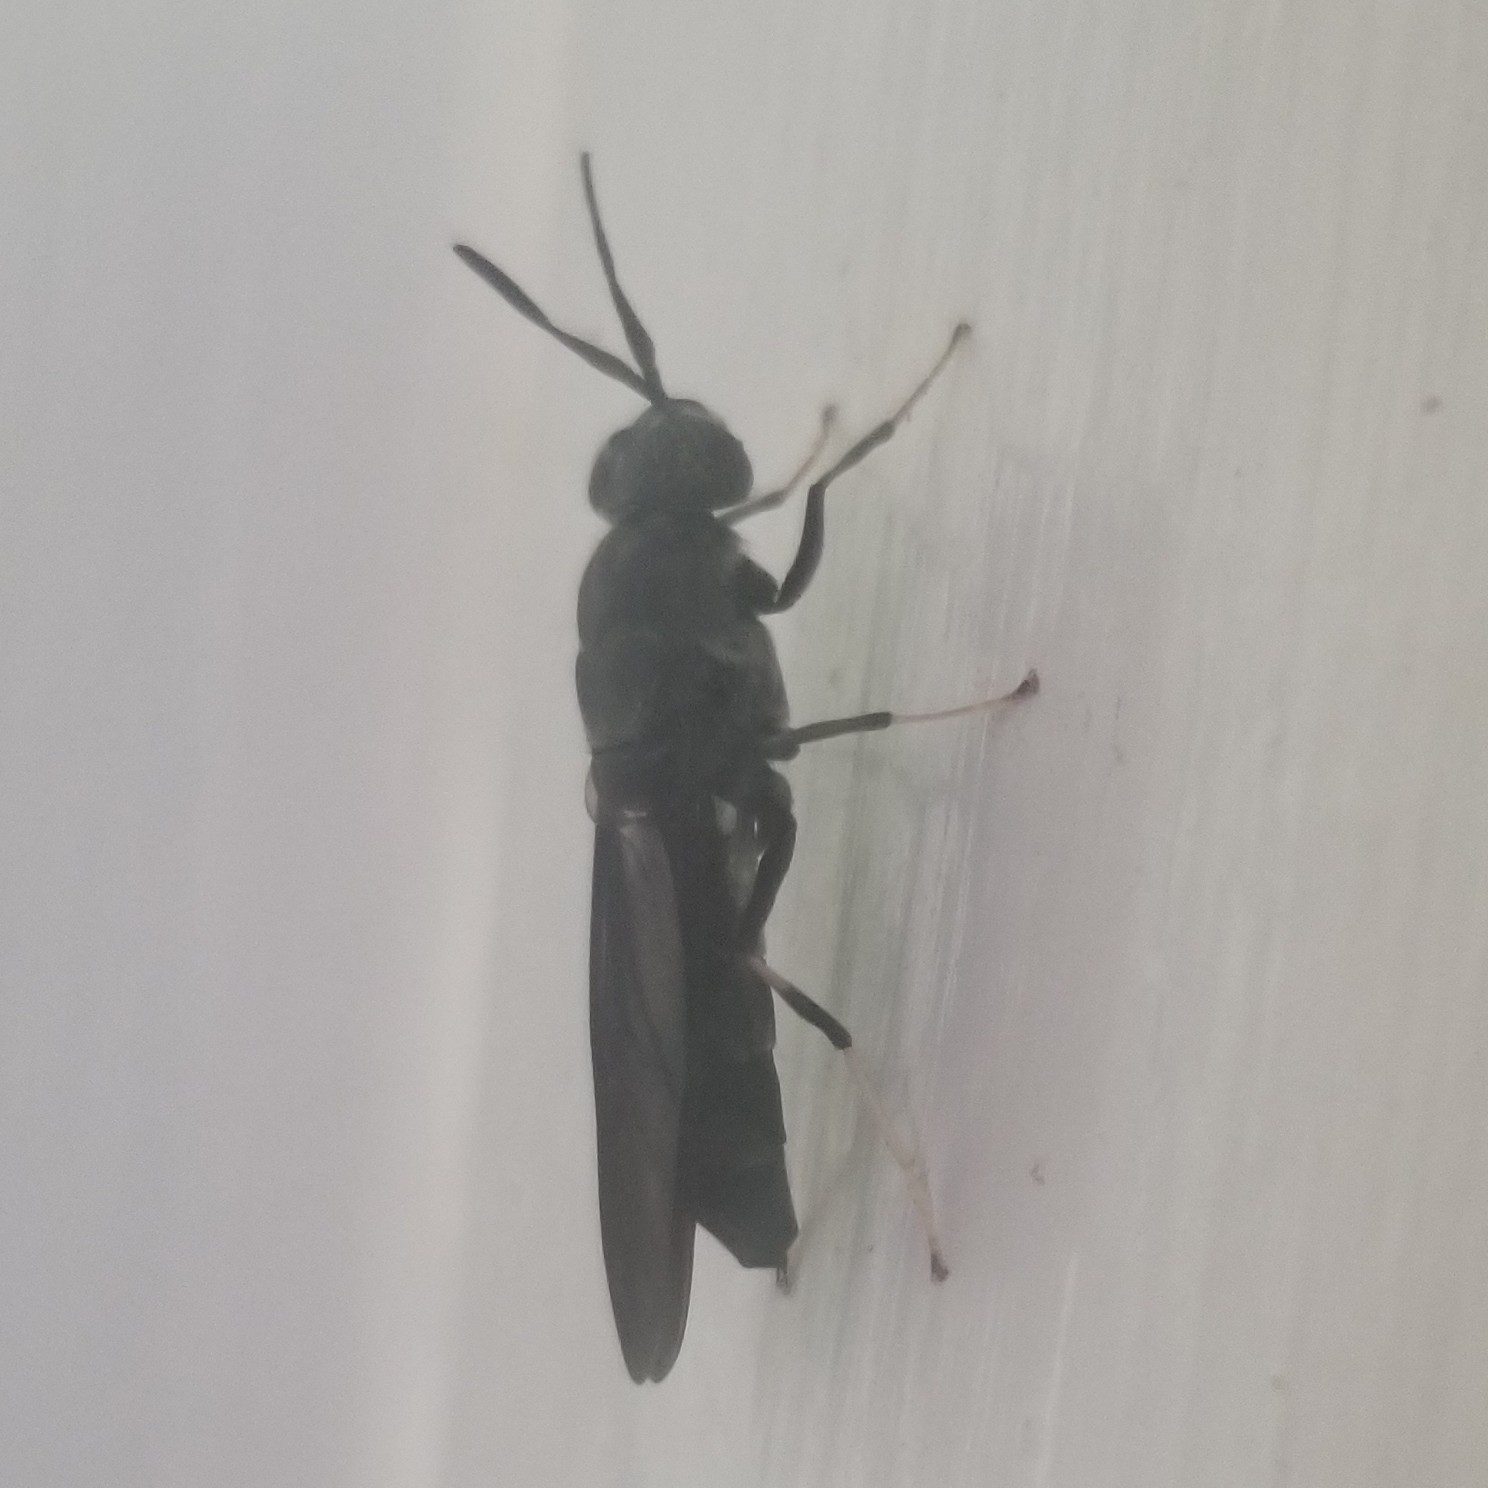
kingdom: Animalia
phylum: Arthropoda
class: Insecta
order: Diptera
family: Stratiomyidae
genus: Hermetia
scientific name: Hermetia illucens
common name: Black soldier fly
